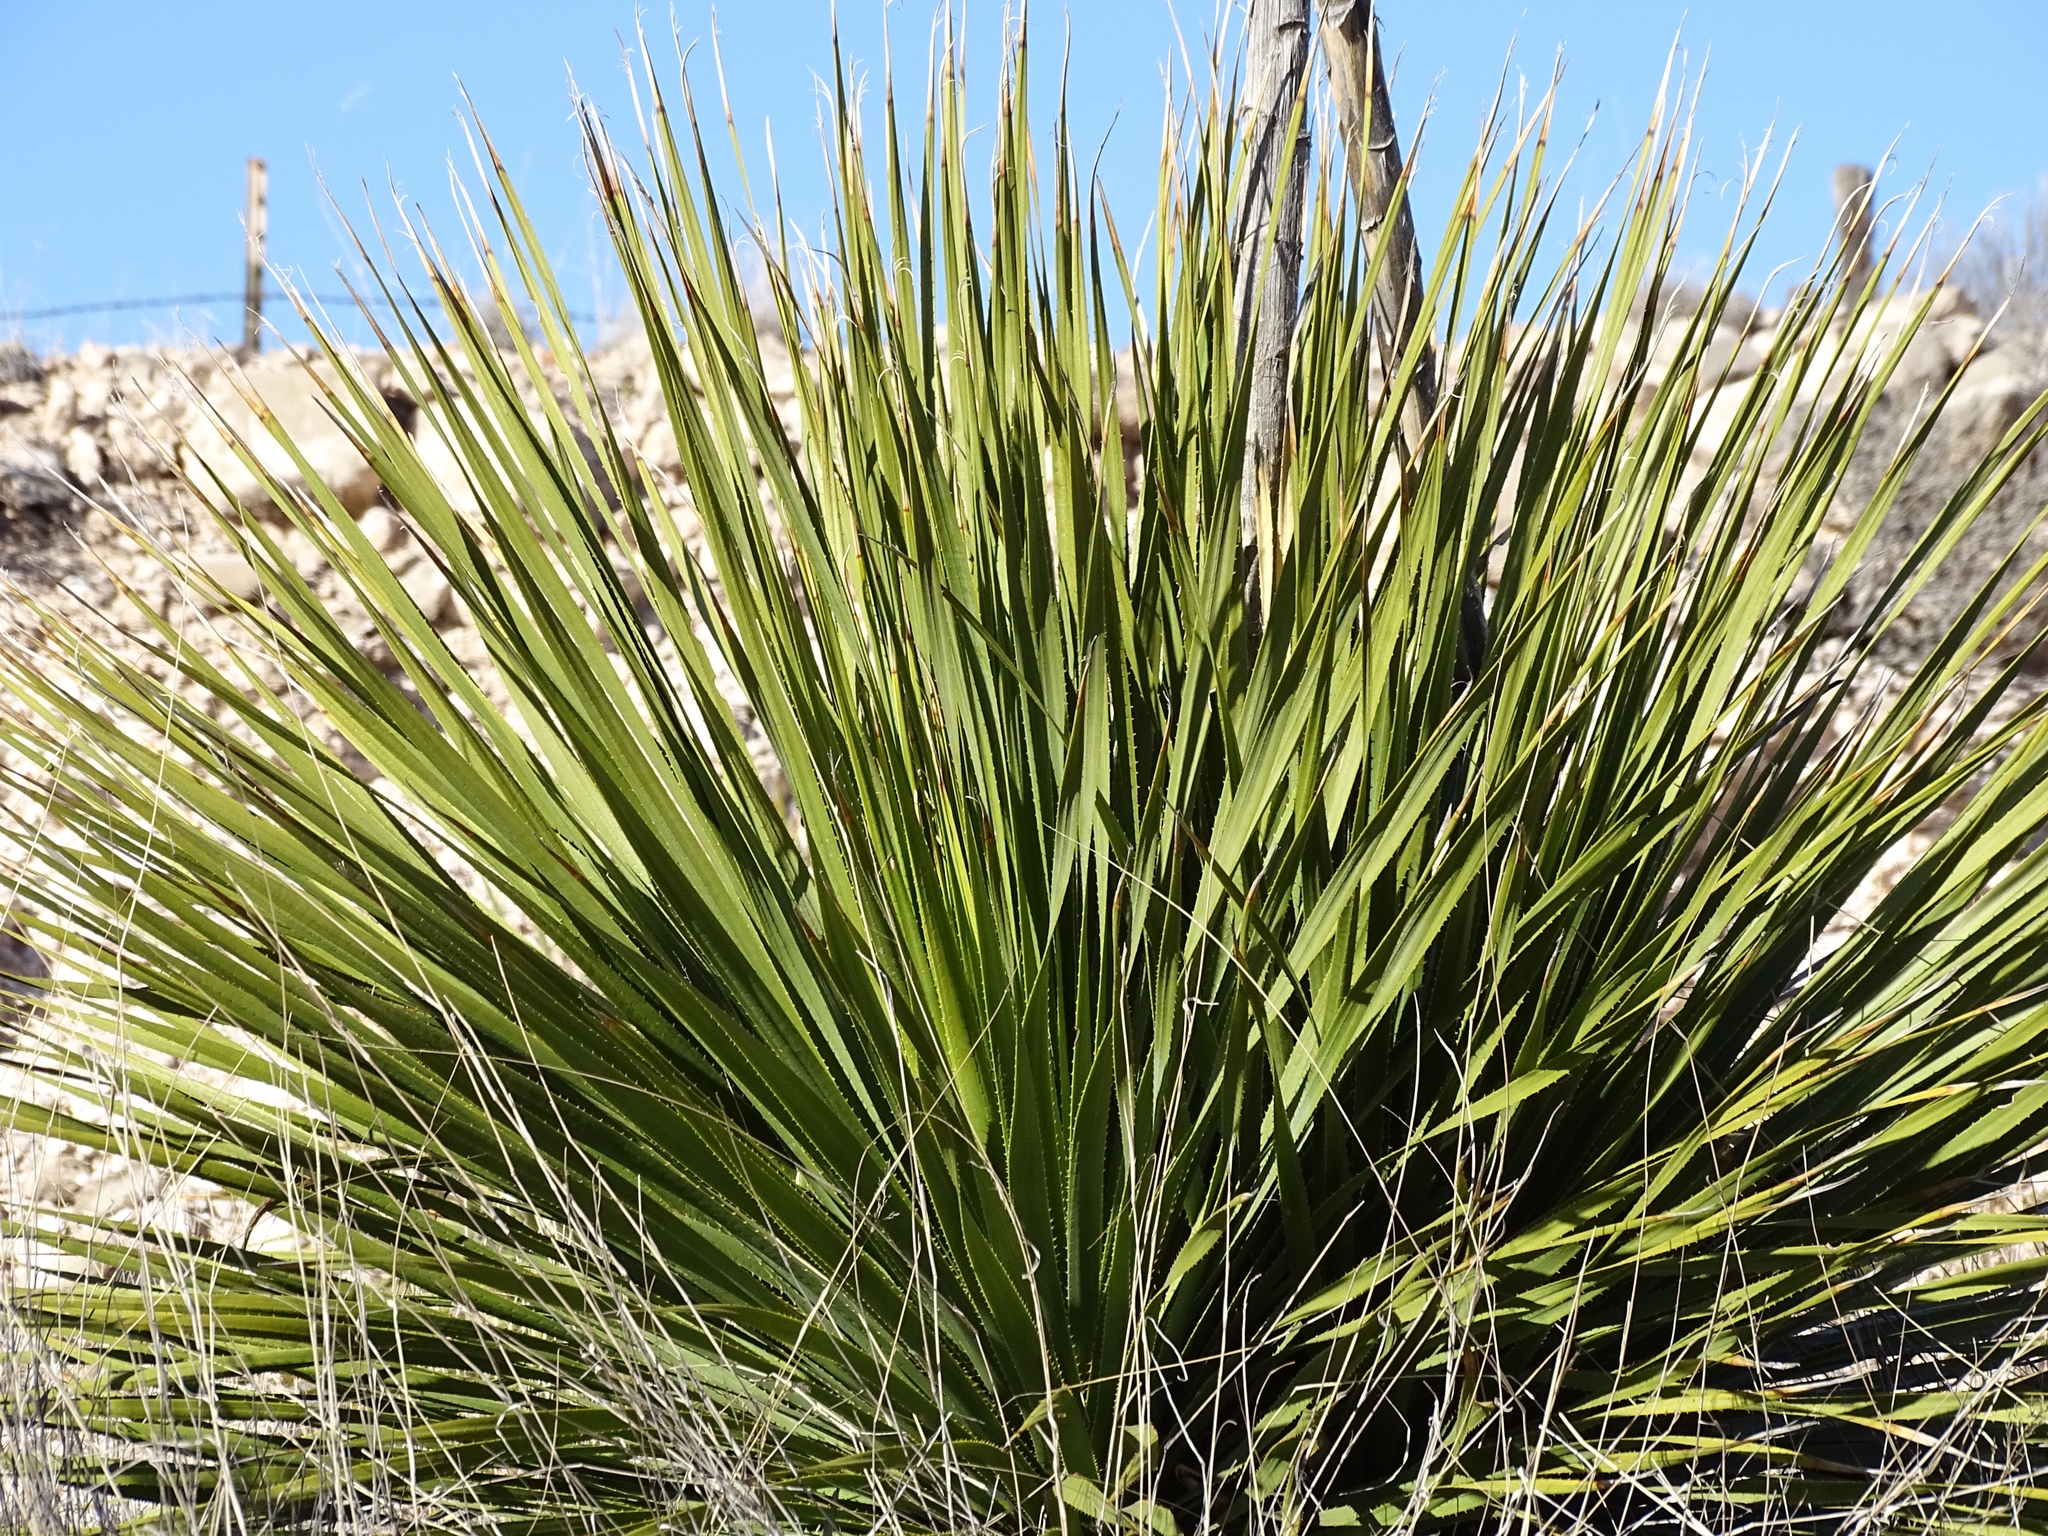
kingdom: Plantae
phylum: Tracheophyta
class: Liliopsida
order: Asparagales
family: Asparagaceae
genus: Dasylirion
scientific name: Dasylirion wheeleri
